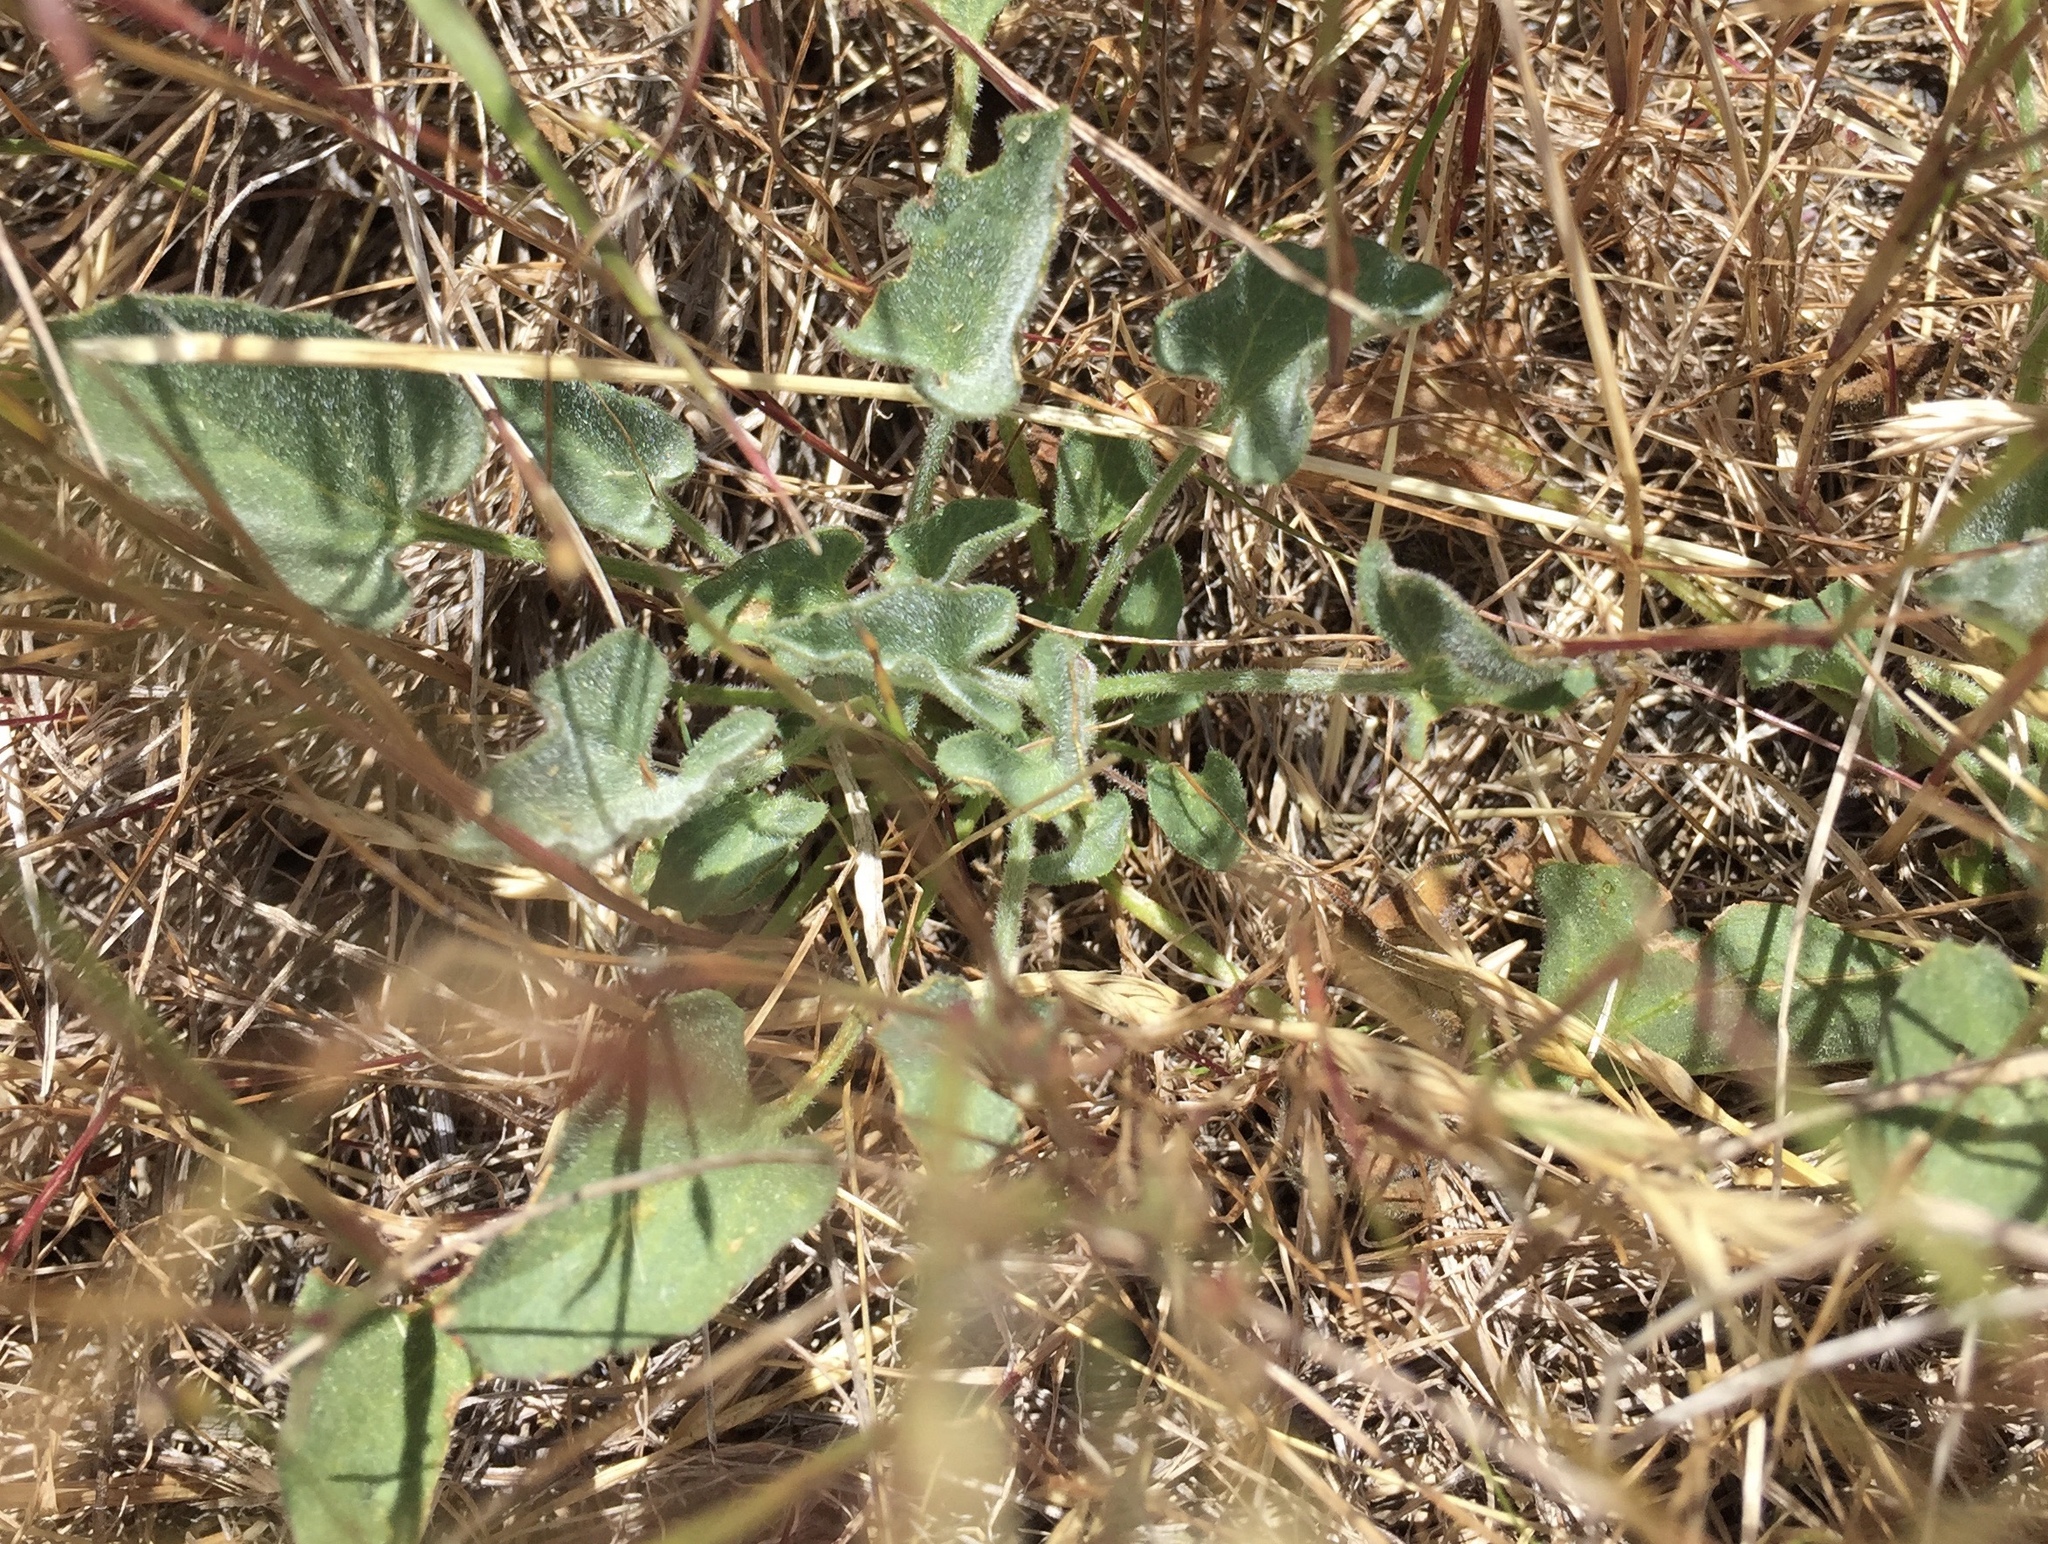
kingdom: Plantae
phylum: Tracheophyta
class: Magnoliopsida
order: Solanales
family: Convolvulaceae
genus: Calystegia
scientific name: Calystegia subacaulis
